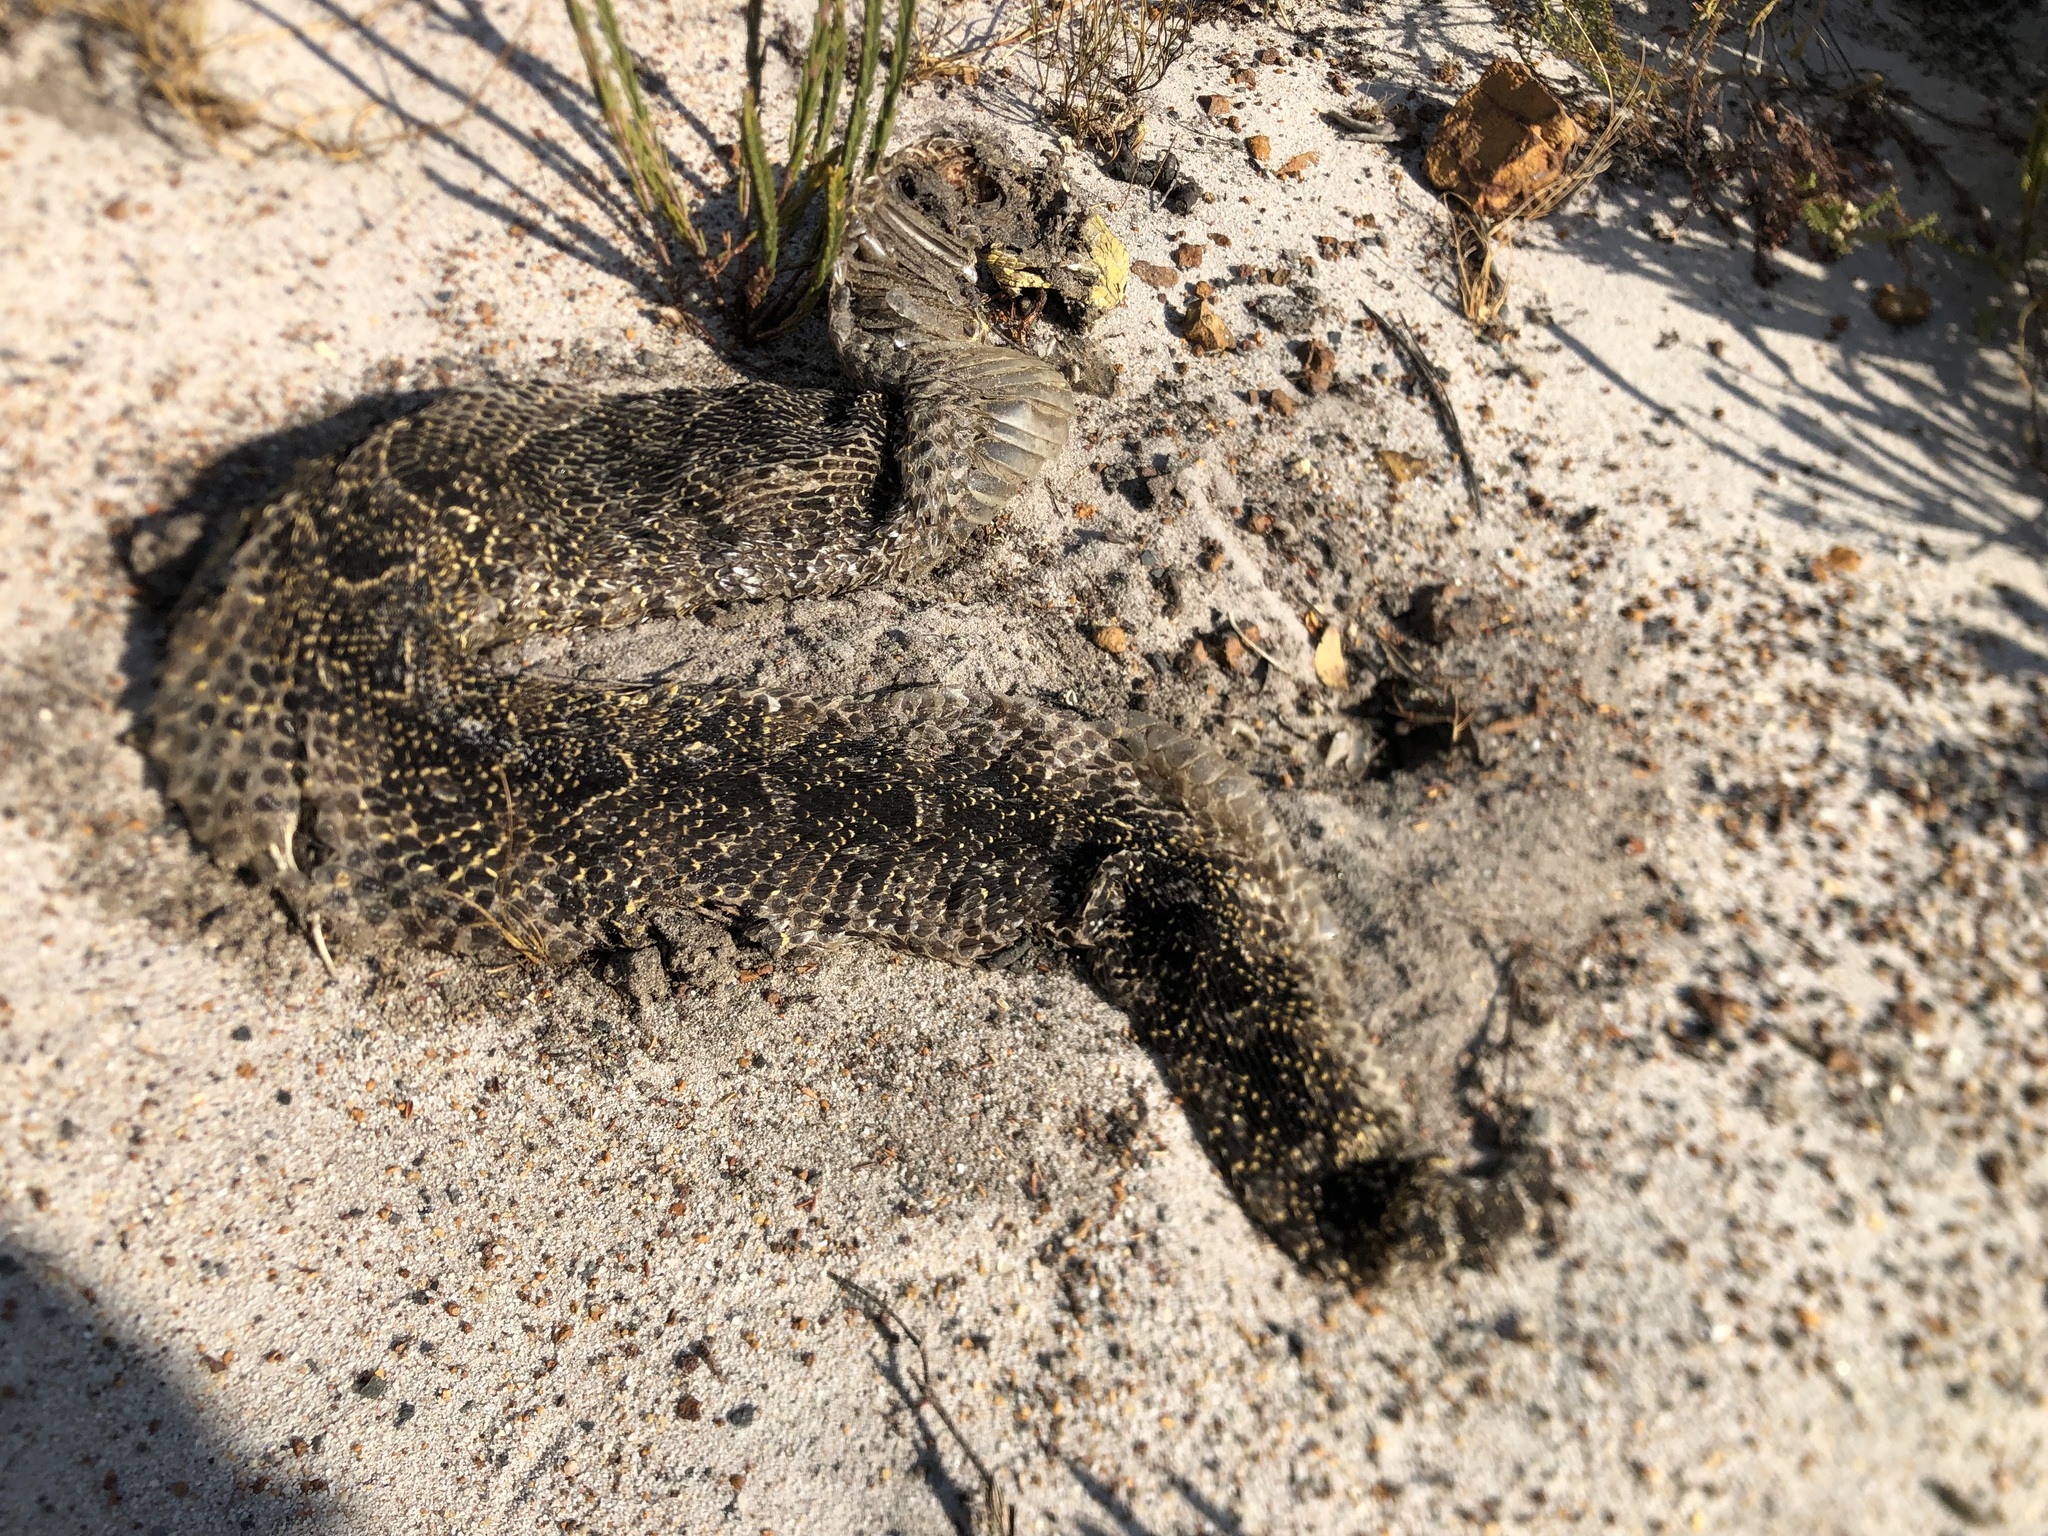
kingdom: Animalia
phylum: Chordata
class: Squamata
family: Viperidae
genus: Bitis
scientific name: Bitis arietans
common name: Puff adder
